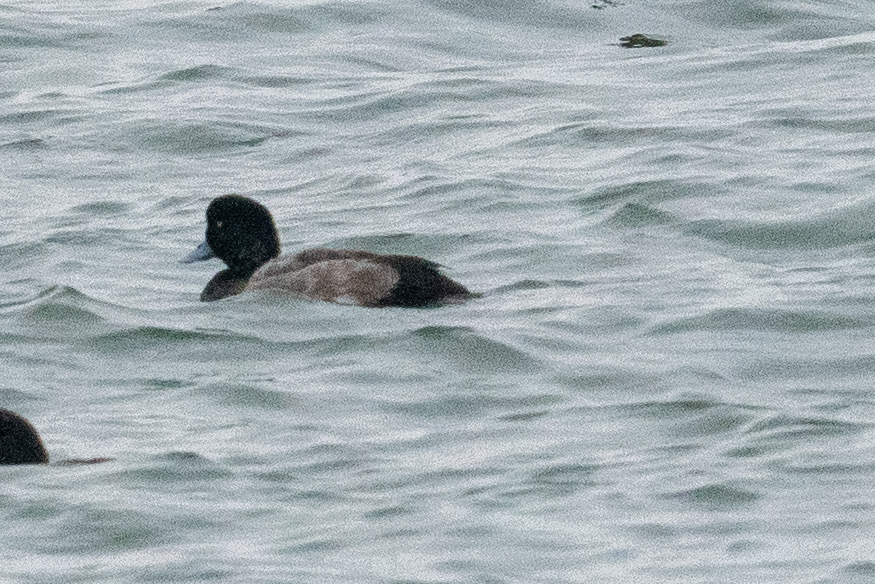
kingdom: Animalia
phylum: Chordata
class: Aves
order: Anseriformes
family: Anatidae
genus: Aythya
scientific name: Aythya marila
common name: Greater scaup
